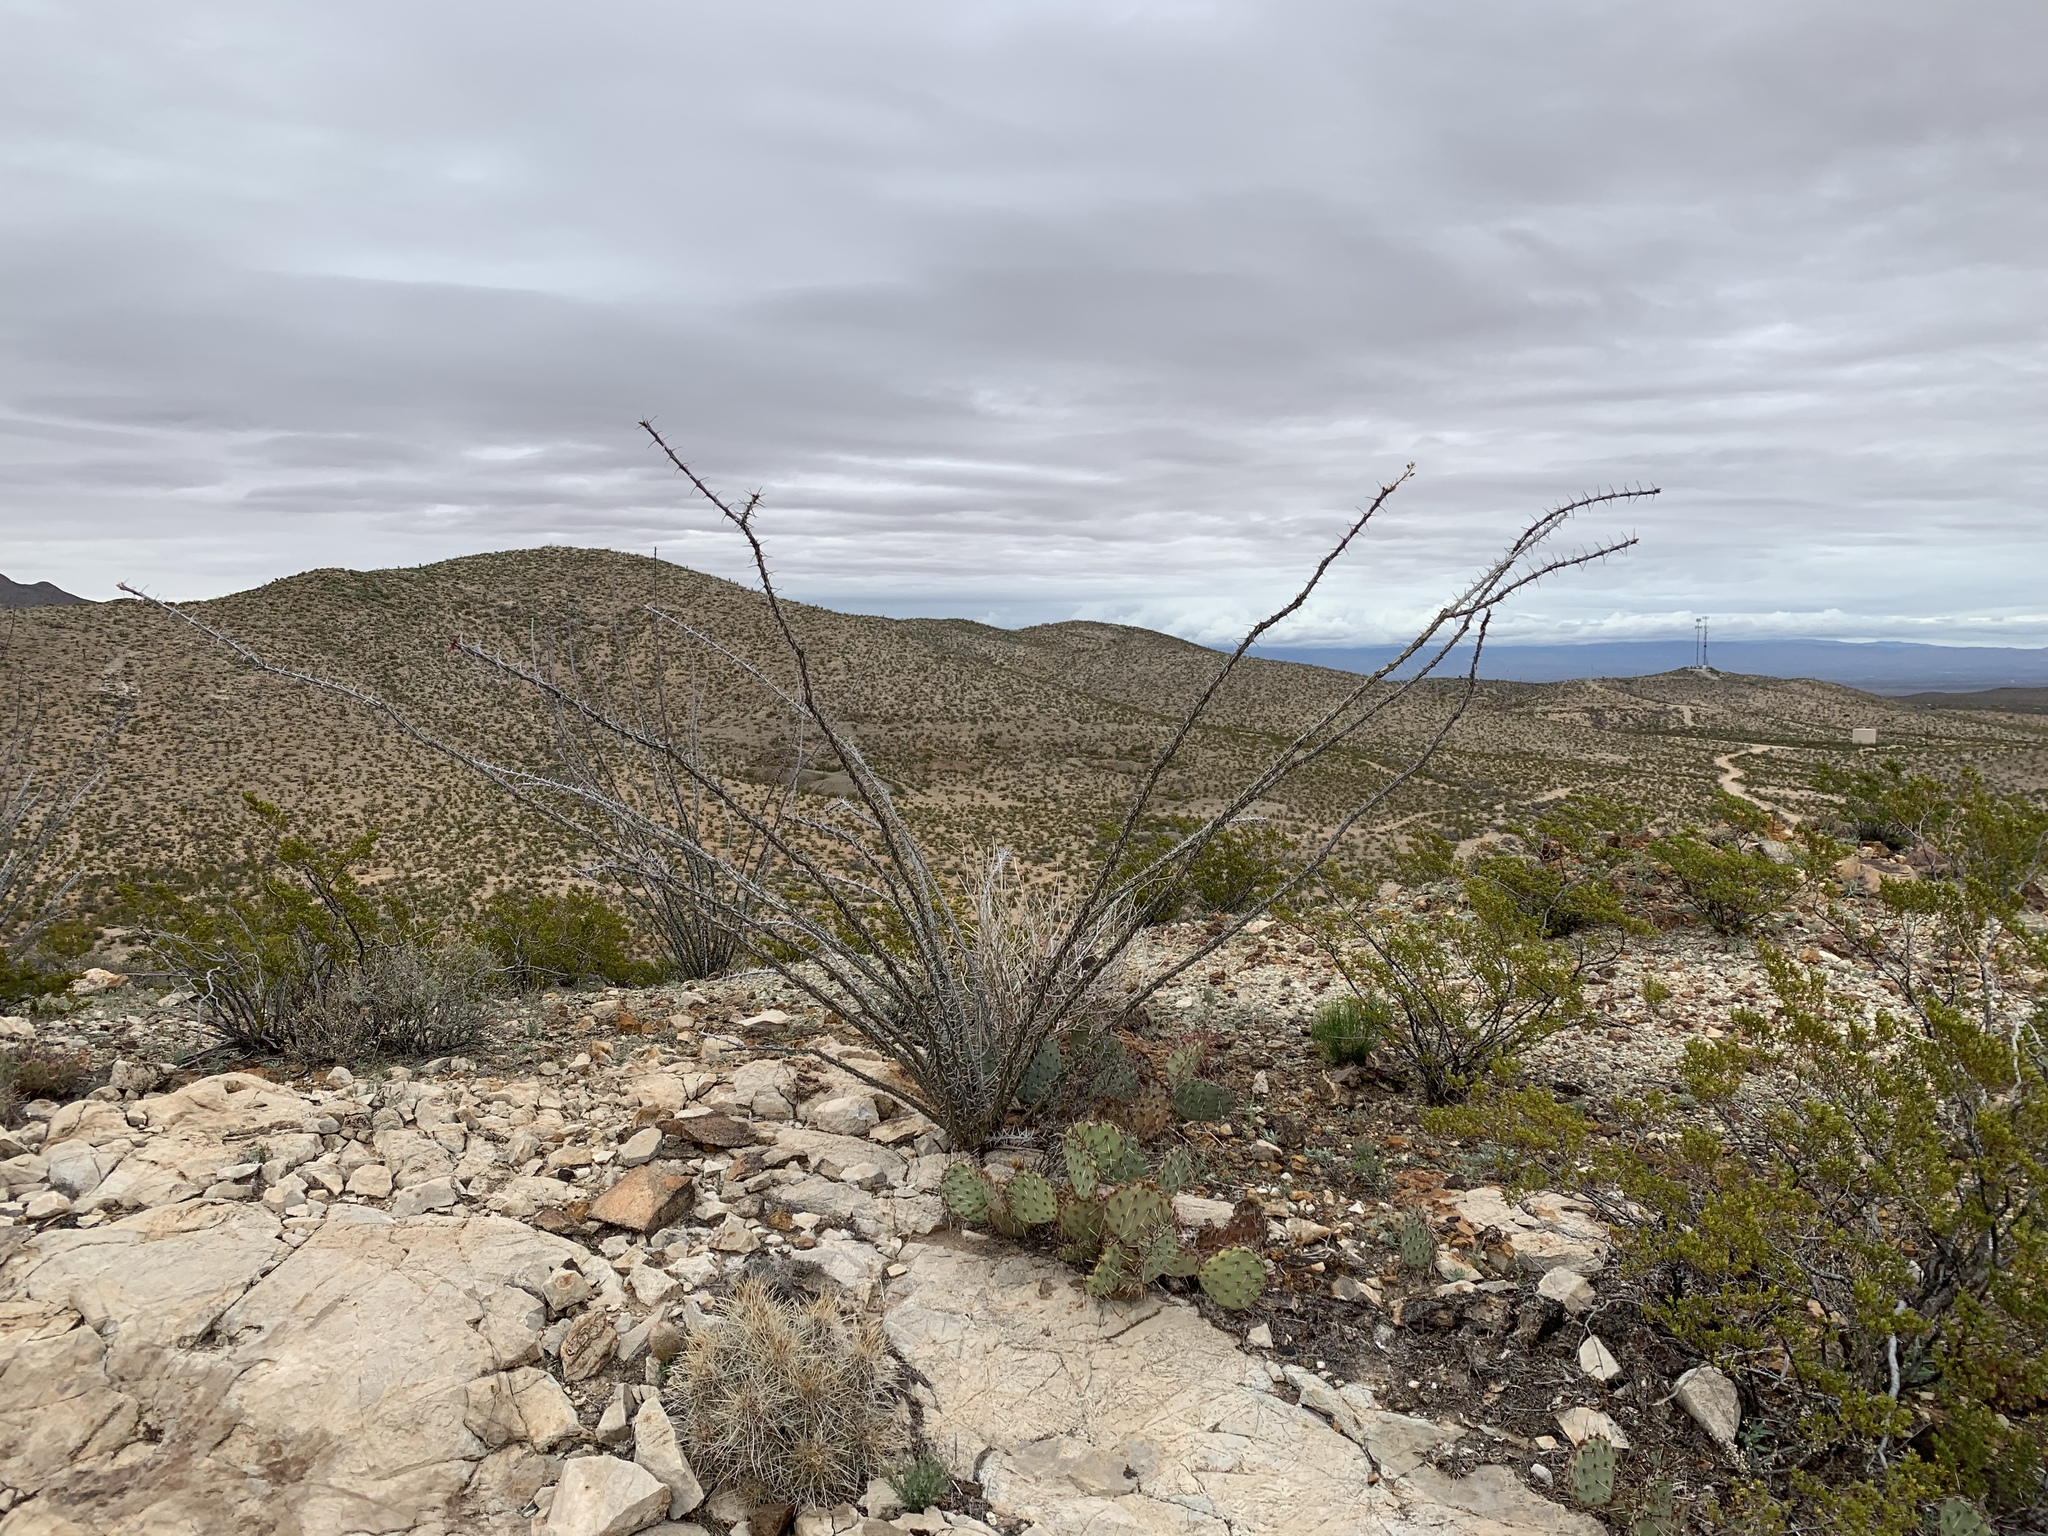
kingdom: Plantae
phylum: Tracheophyta
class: Magnoliopsida
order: Ericales
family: Fouquieriaceae
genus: Fouquieria
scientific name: Fouquieria splendens
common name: Vine-cactus
